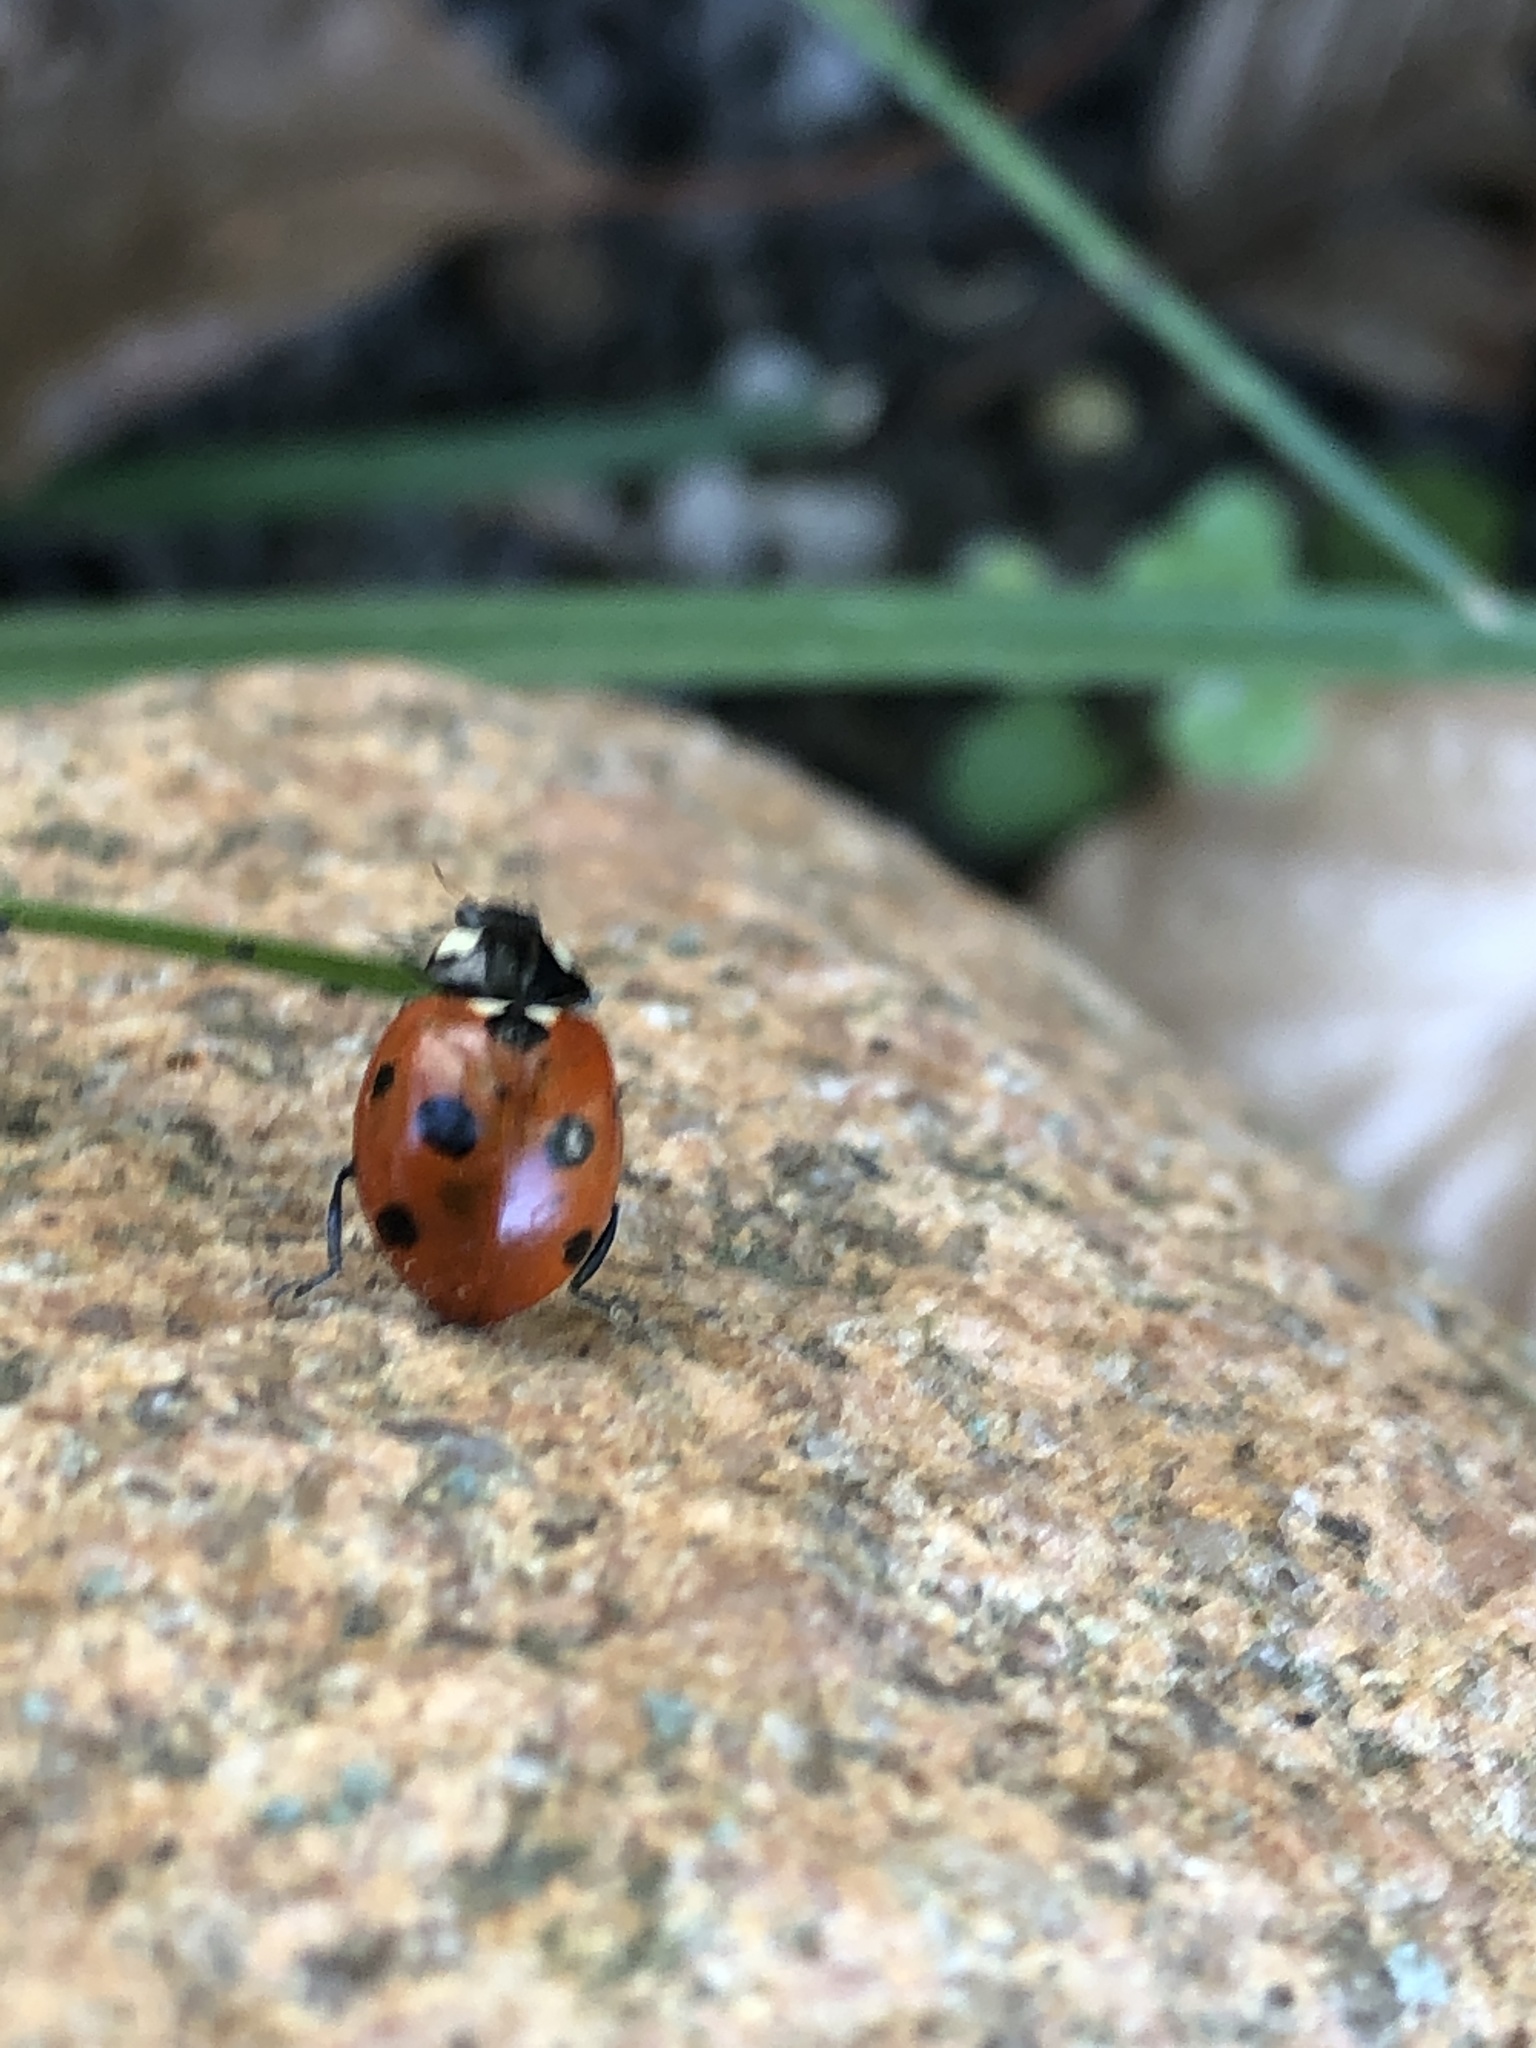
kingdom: Animalia
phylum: Arthropoda
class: Insecta
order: Coleoptera
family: Coccinellidae
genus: Coccinella
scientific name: Coccinella septempunctata
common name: Sevenspotted lady beetle
